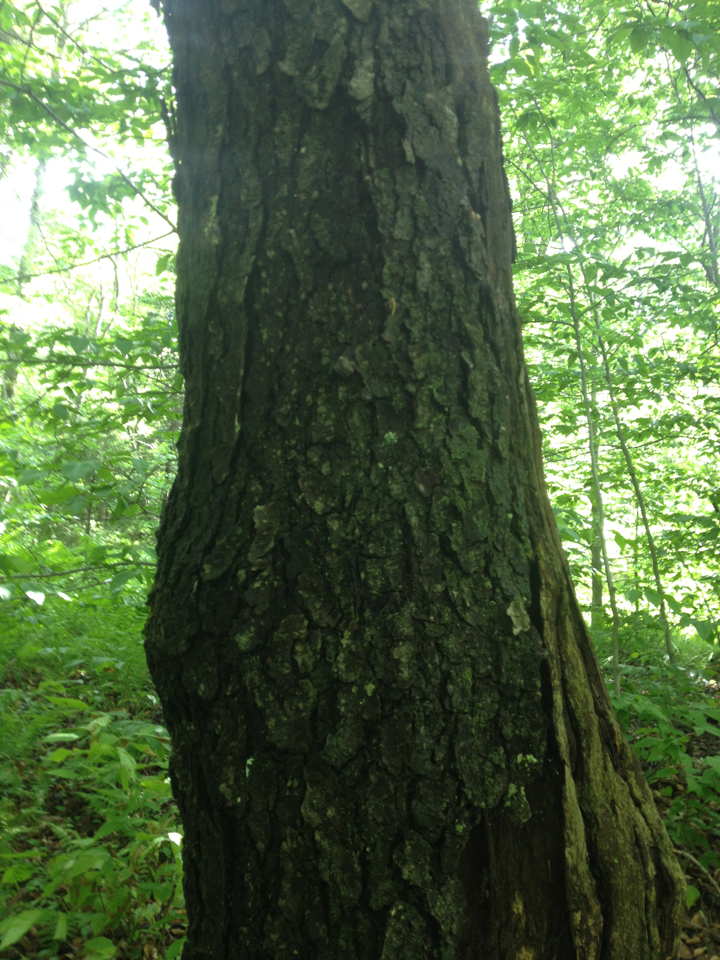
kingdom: Plantae
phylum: Tracheophyta
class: Magnoliopsida
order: Rosales
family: Rosaceae
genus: Prunus
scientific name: Prunus serotina
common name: Black cherry
